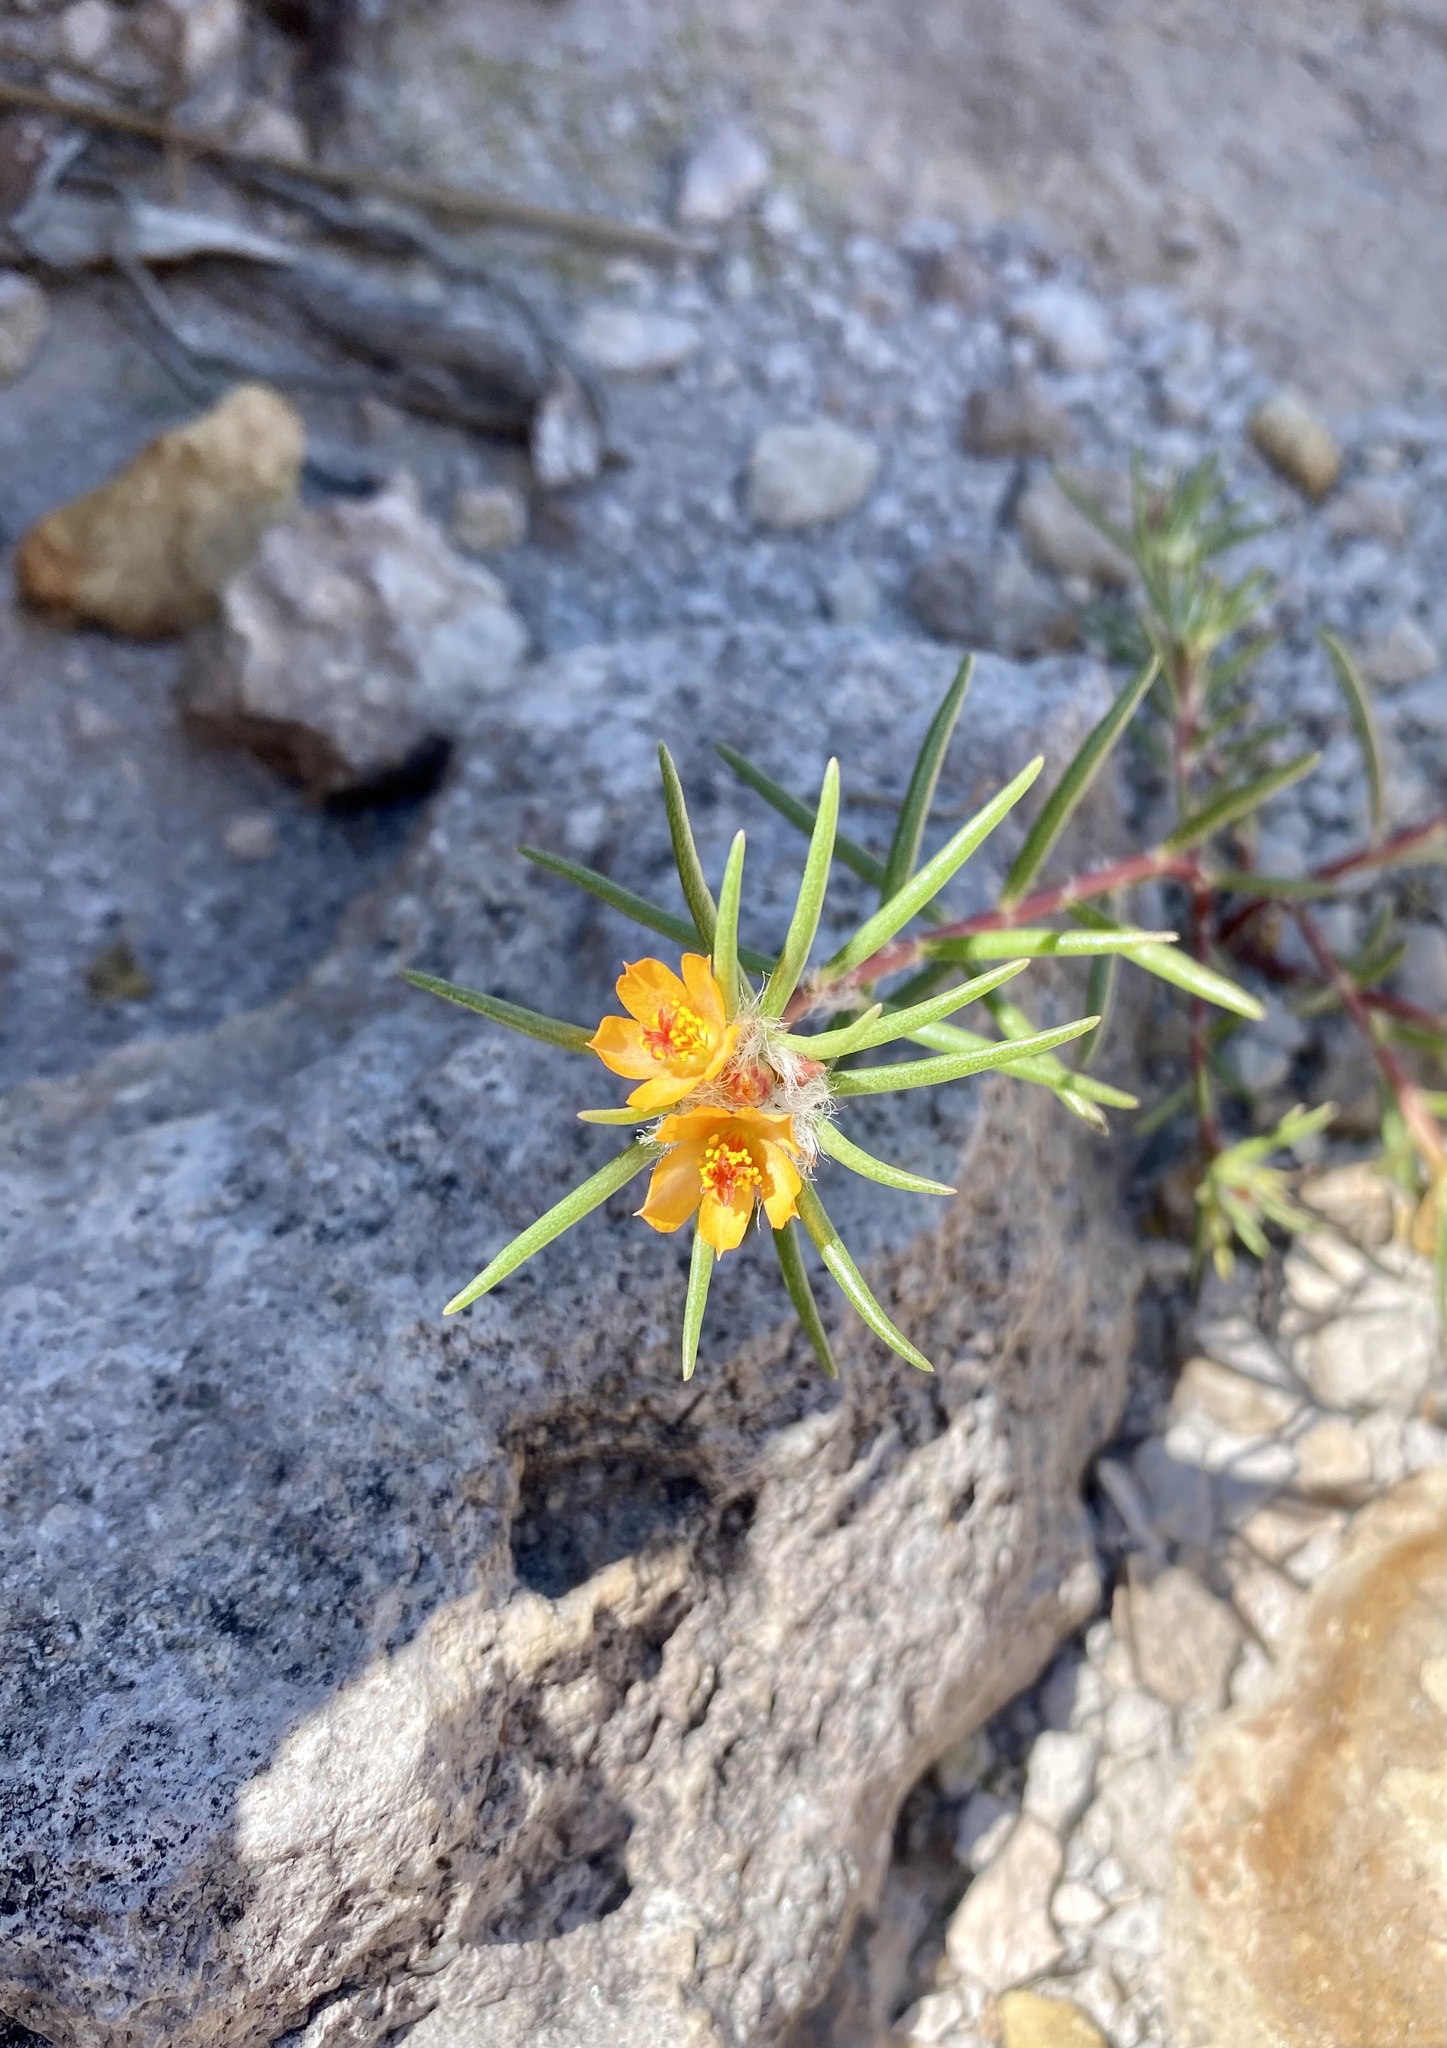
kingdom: Plantae
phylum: Tracheophyta
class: Magnoliopsida
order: Caryophyllales
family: Portulacaceae
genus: Portulaca
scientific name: Portulaca suffrutescens
